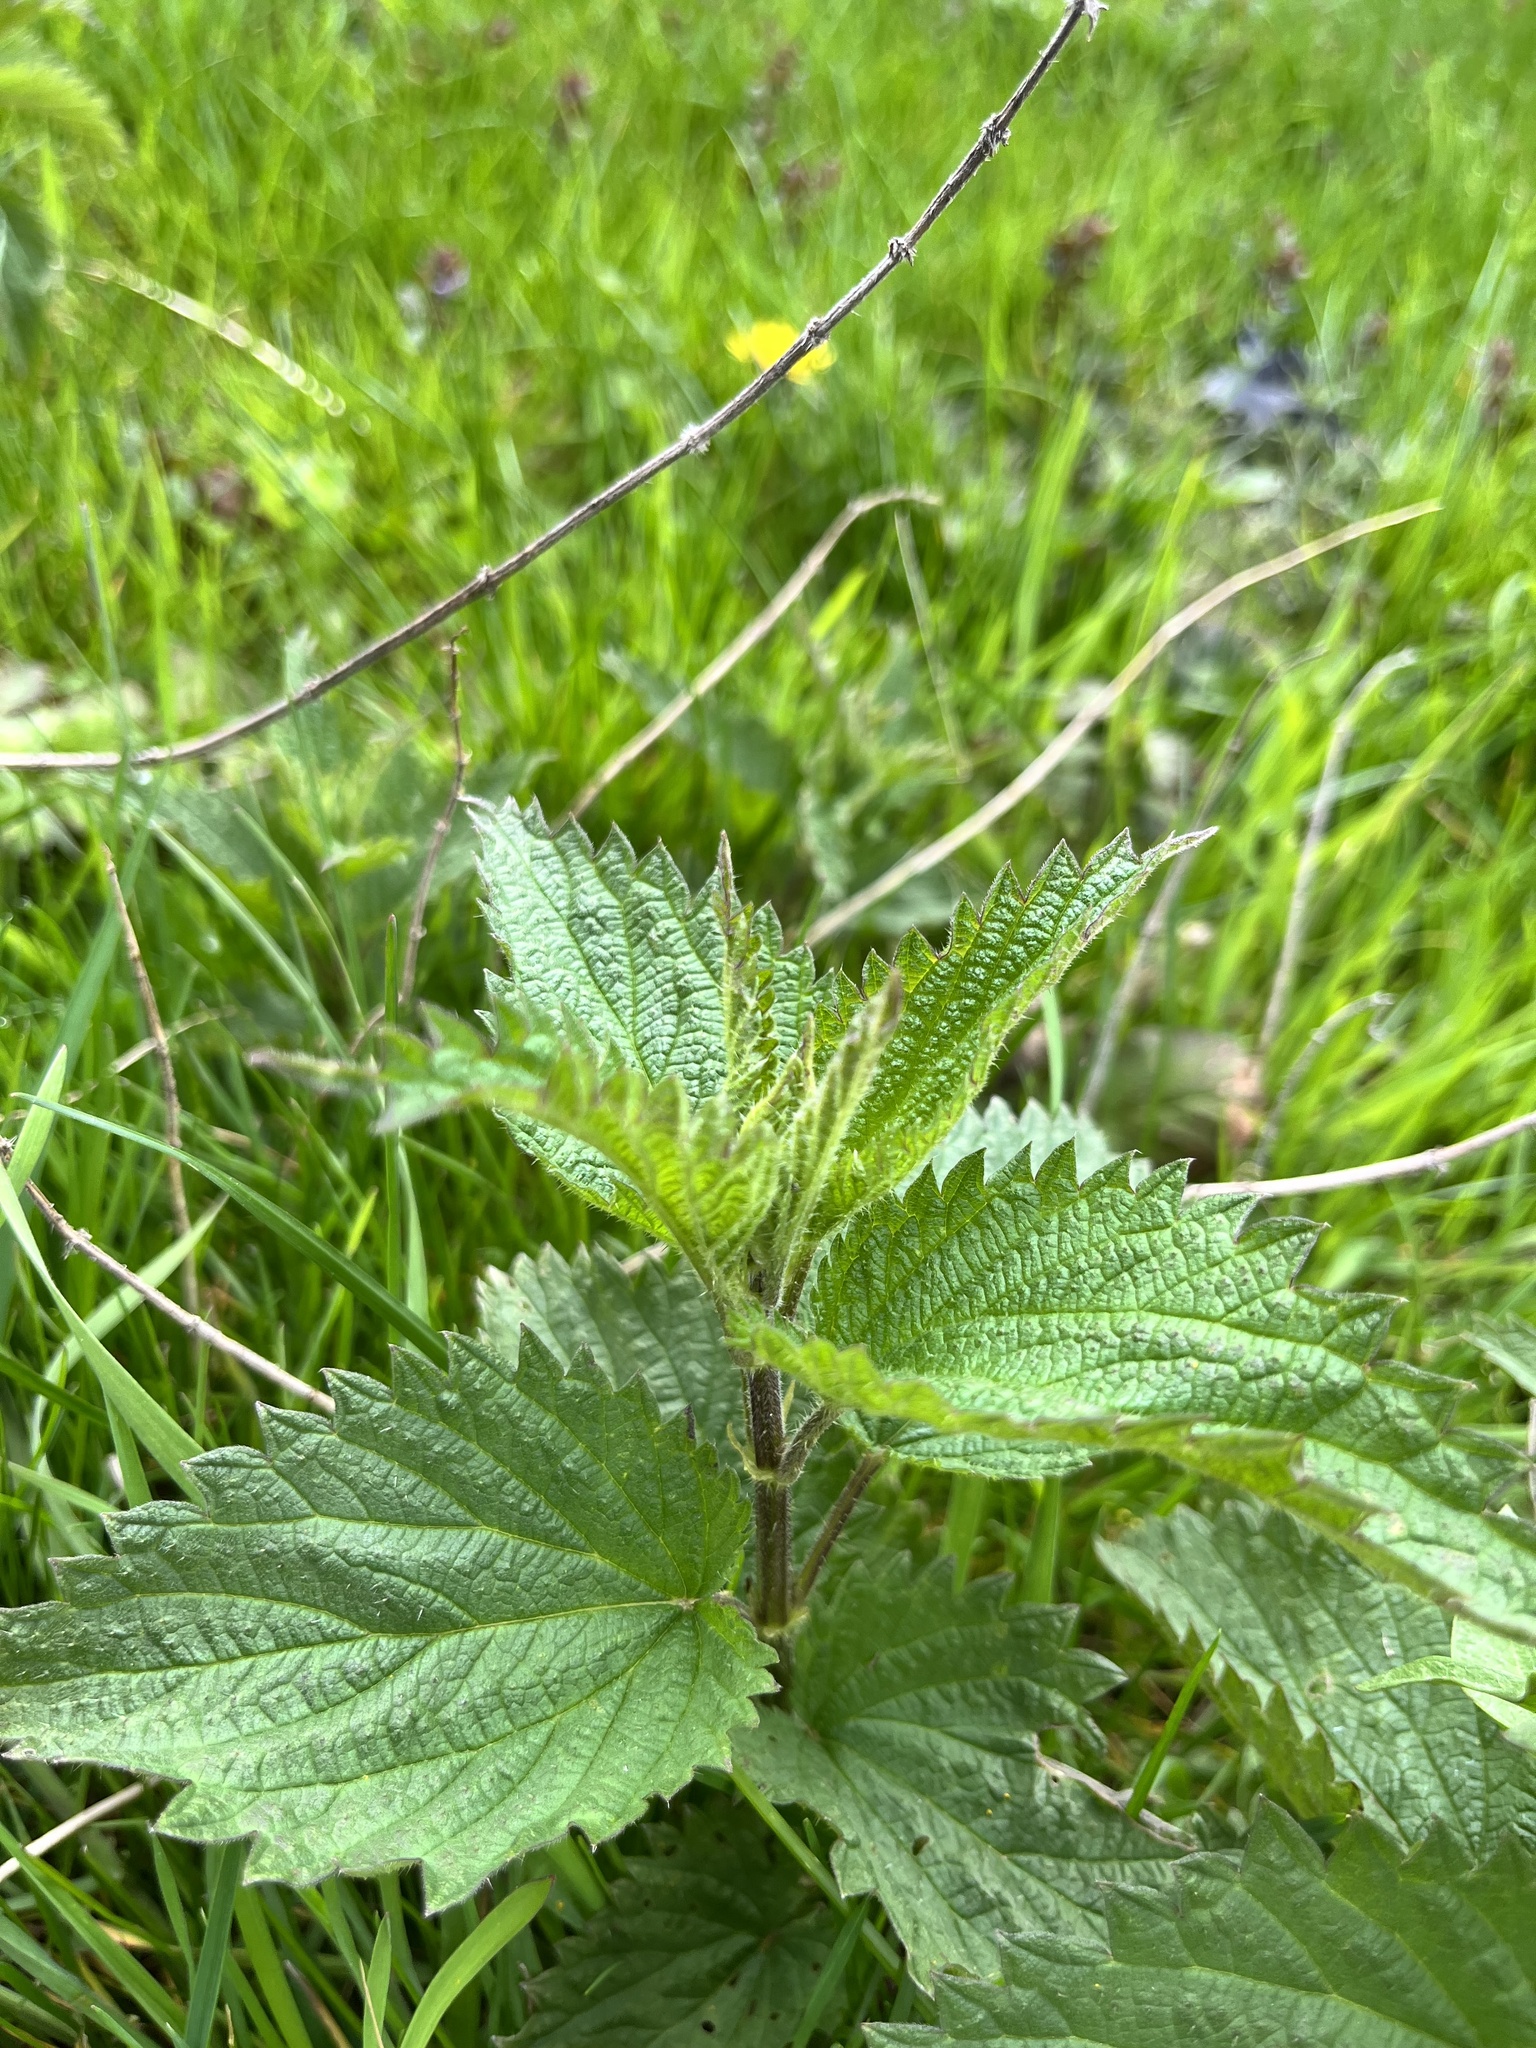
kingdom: Plantae
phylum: Tracheophyta
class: Magnoliopsida
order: Rosales
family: Urticaceae
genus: Urtica
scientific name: Urtica dioica
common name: Common nettle
